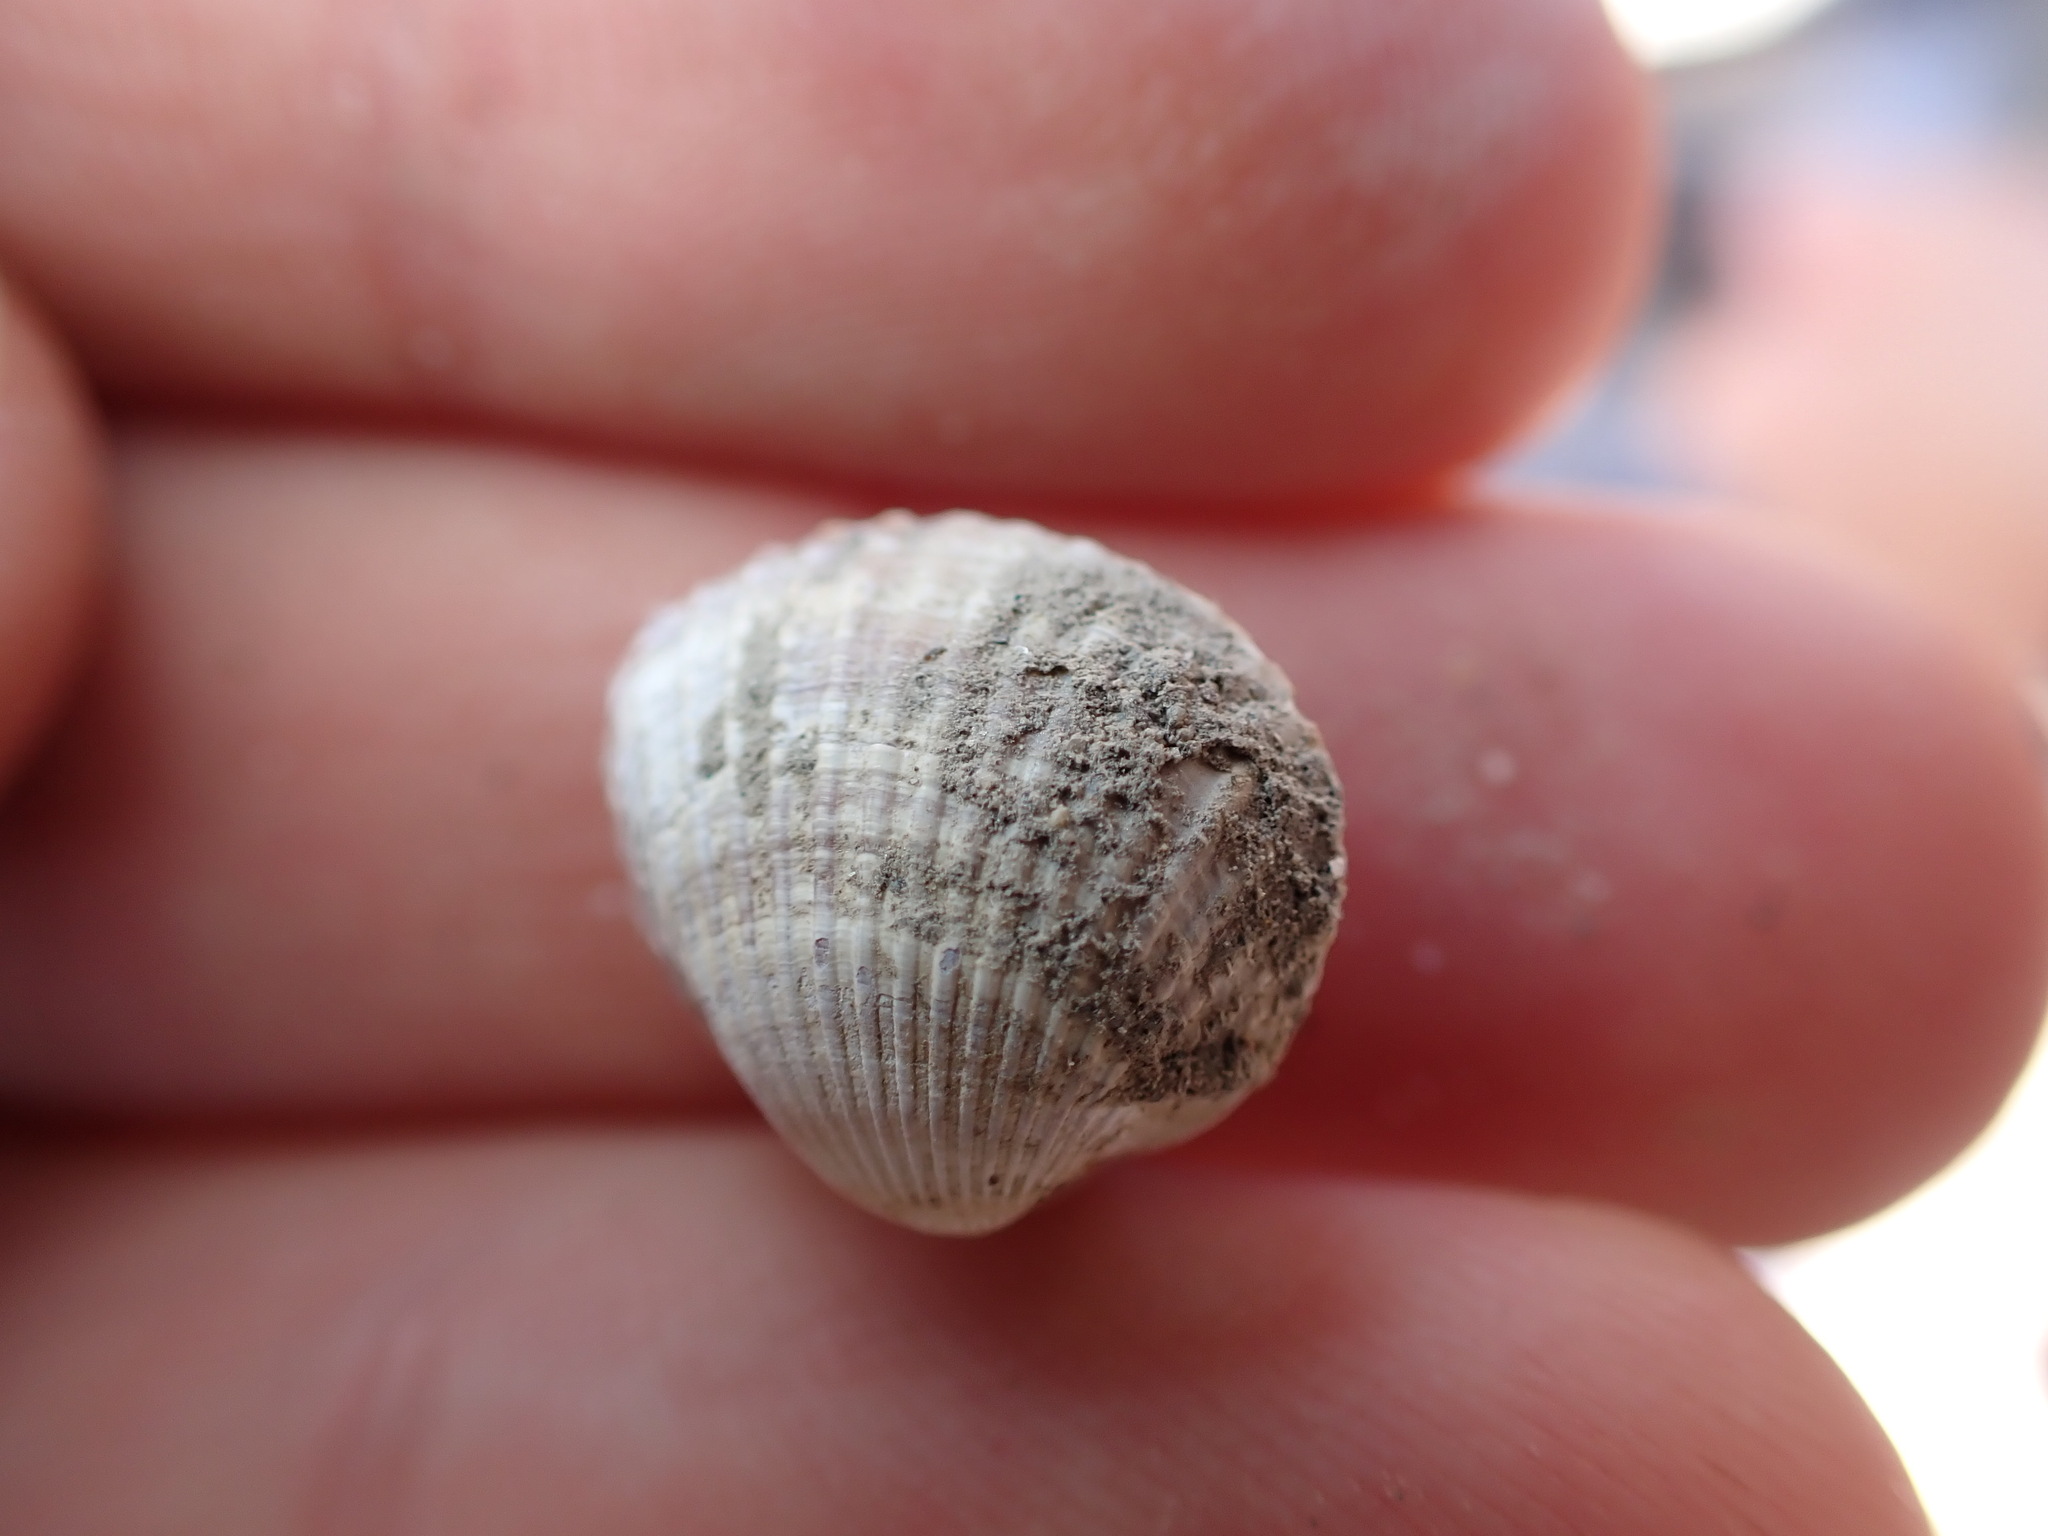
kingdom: Animalia
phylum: Mollusca
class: Bivalvia
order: Cardiida
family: Cardiidae
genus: Cerastoderma
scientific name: Cerastoderma glaucum
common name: Lagoon cockle
